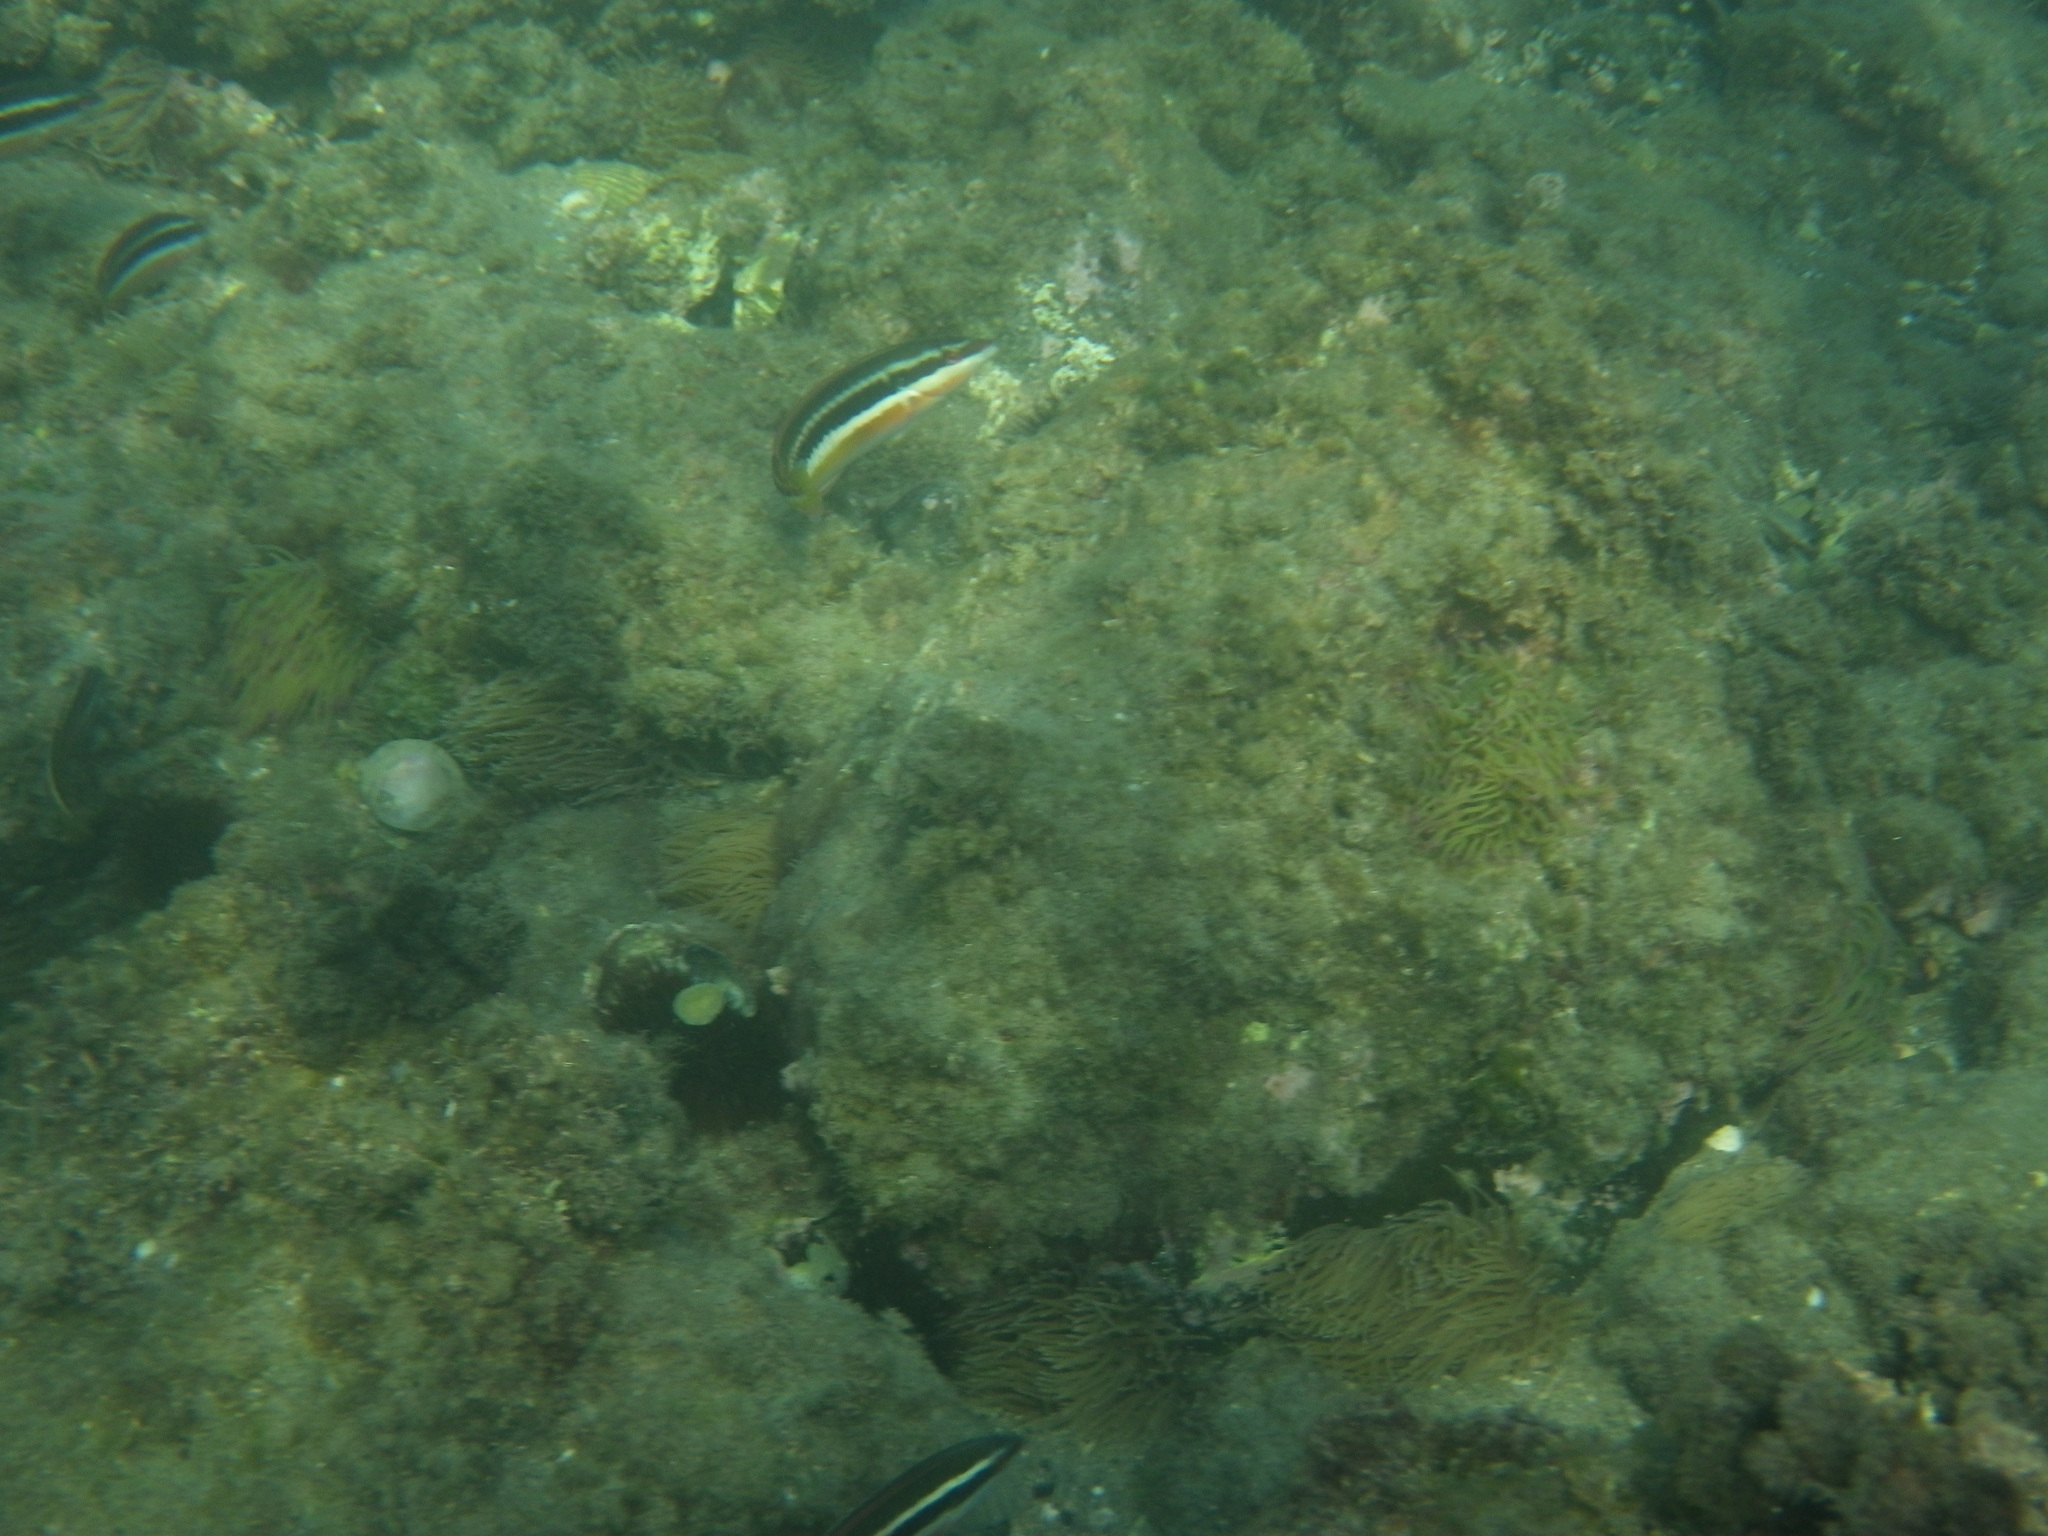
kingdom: Animalia
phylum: Chordata
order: Perciformes
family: Labridae
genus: Coris
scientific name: Coris julis
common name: Rainbow wrasse
